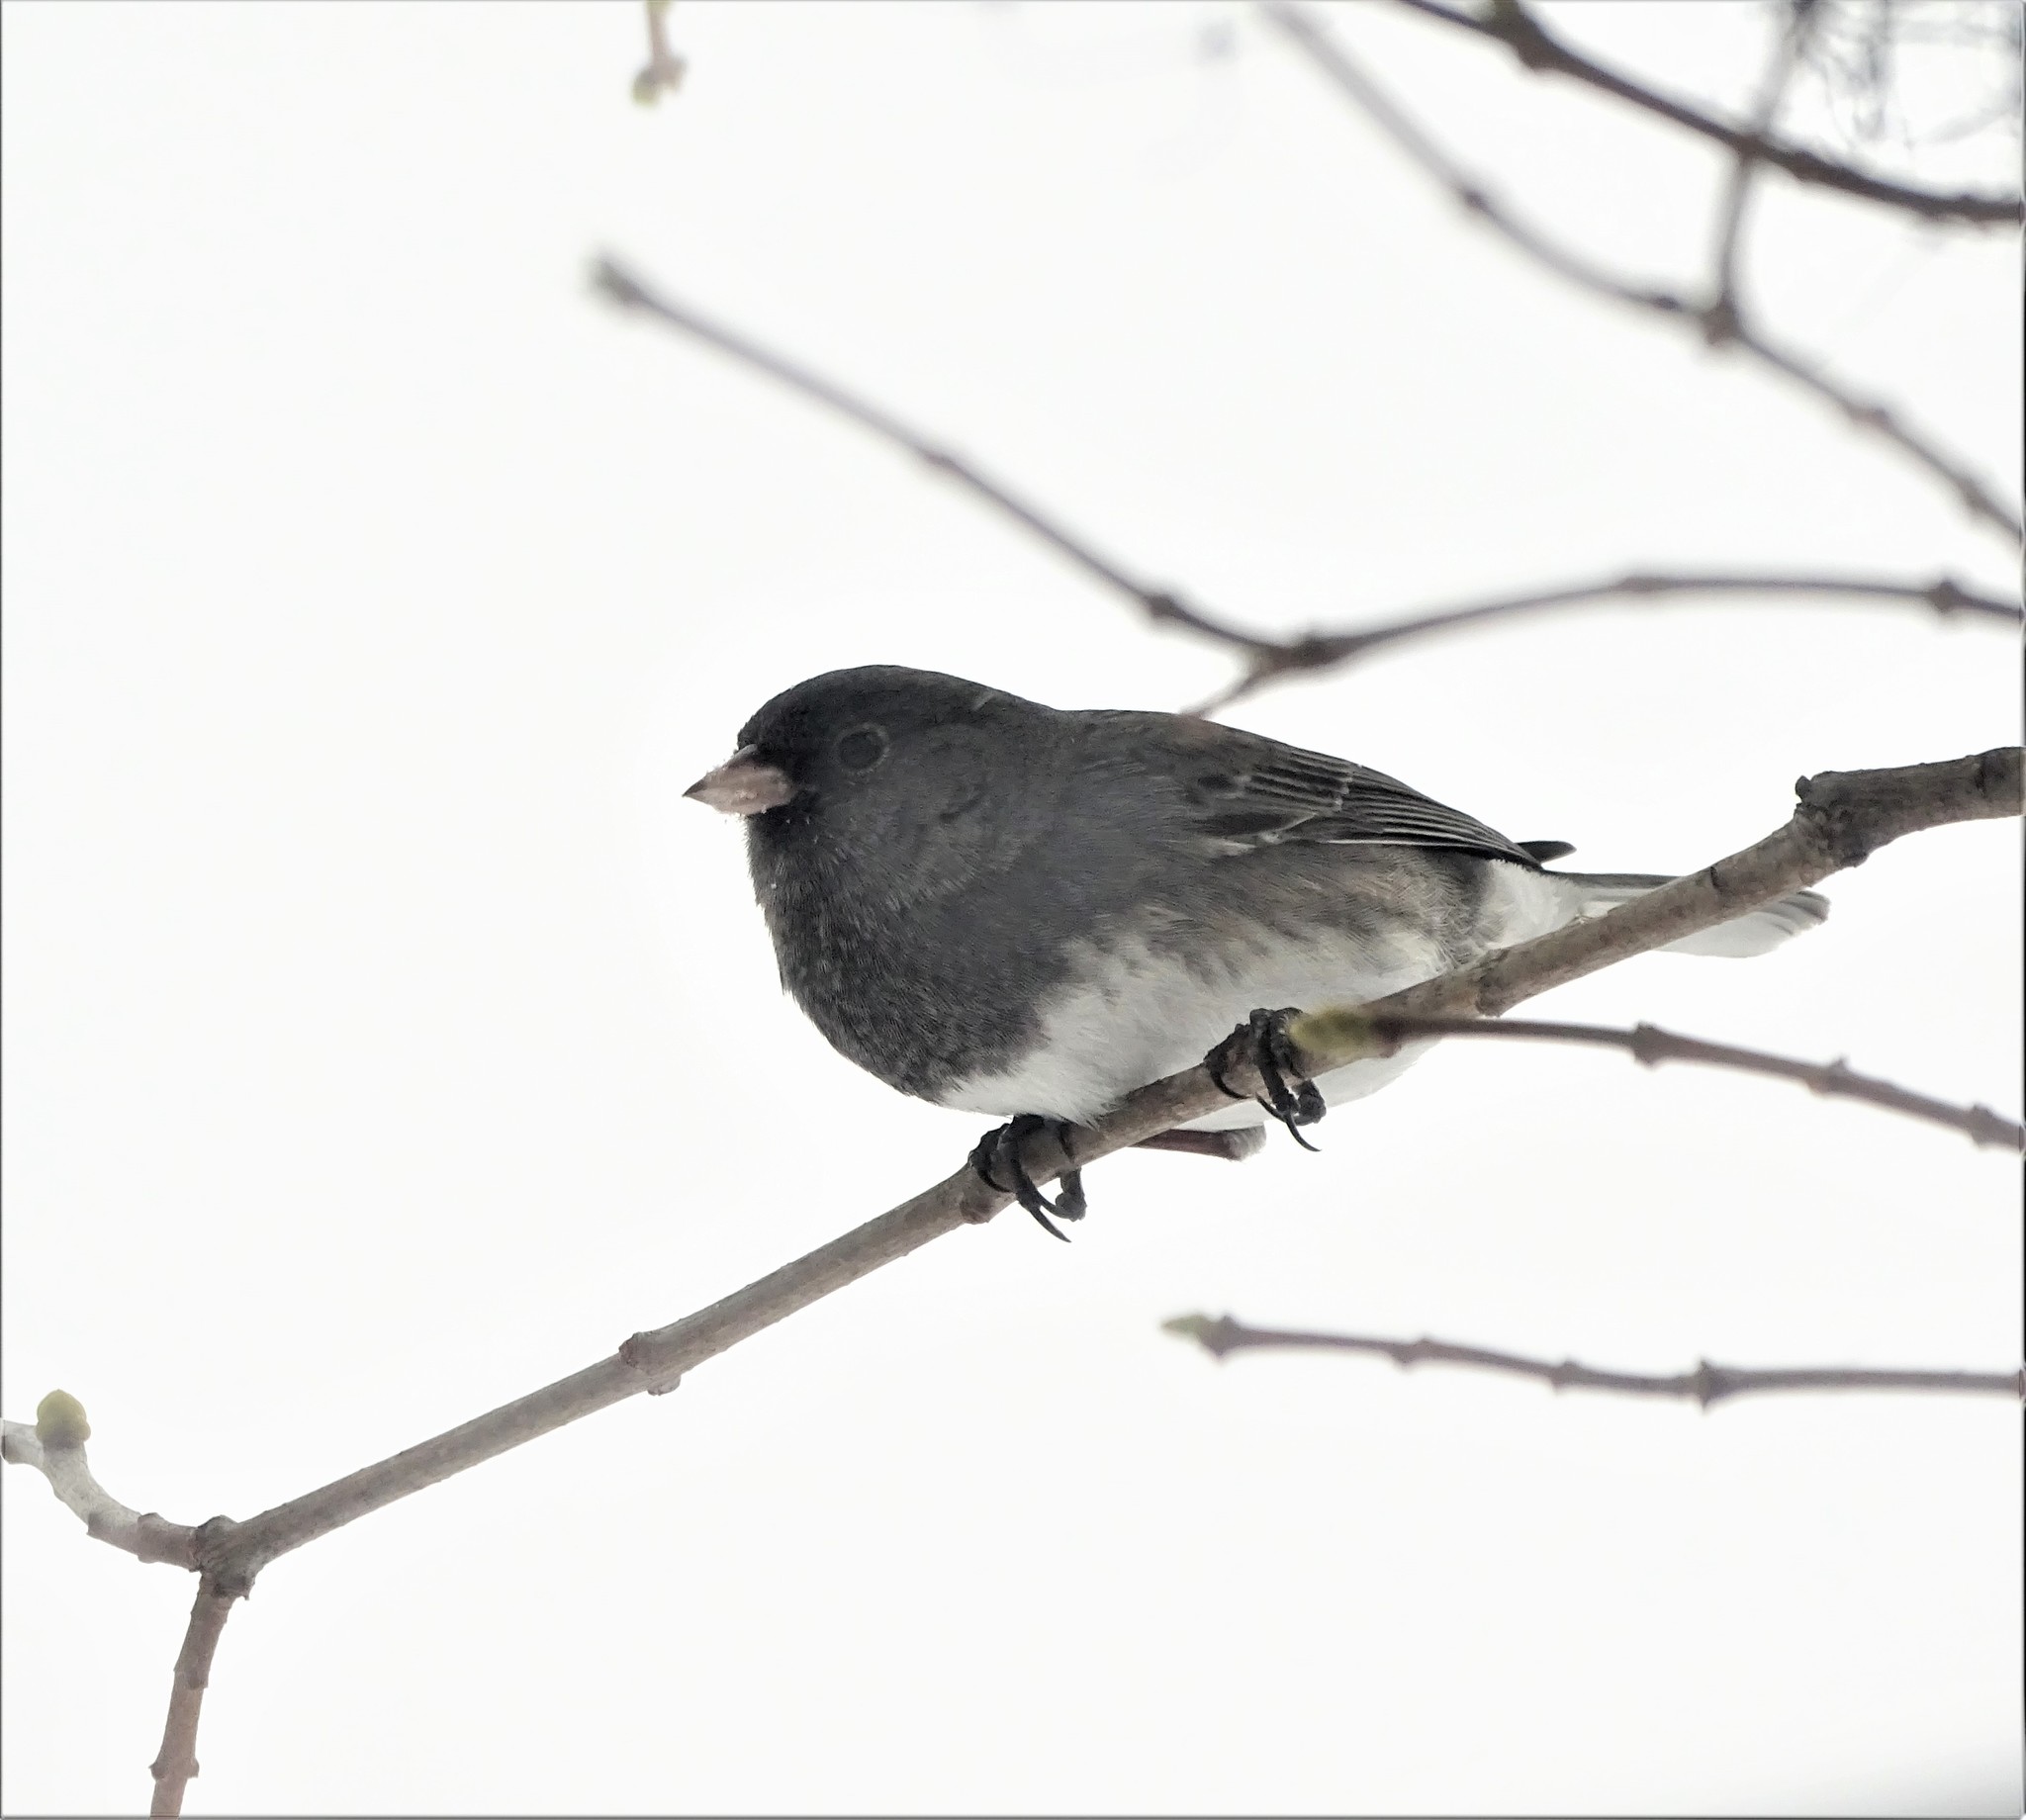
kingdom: Animalia
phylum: Chordata
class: Aves
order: Passeriformes
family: Passerellidae
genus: Junco
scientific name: Junco hyemalis
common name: Dark-eyed junco
